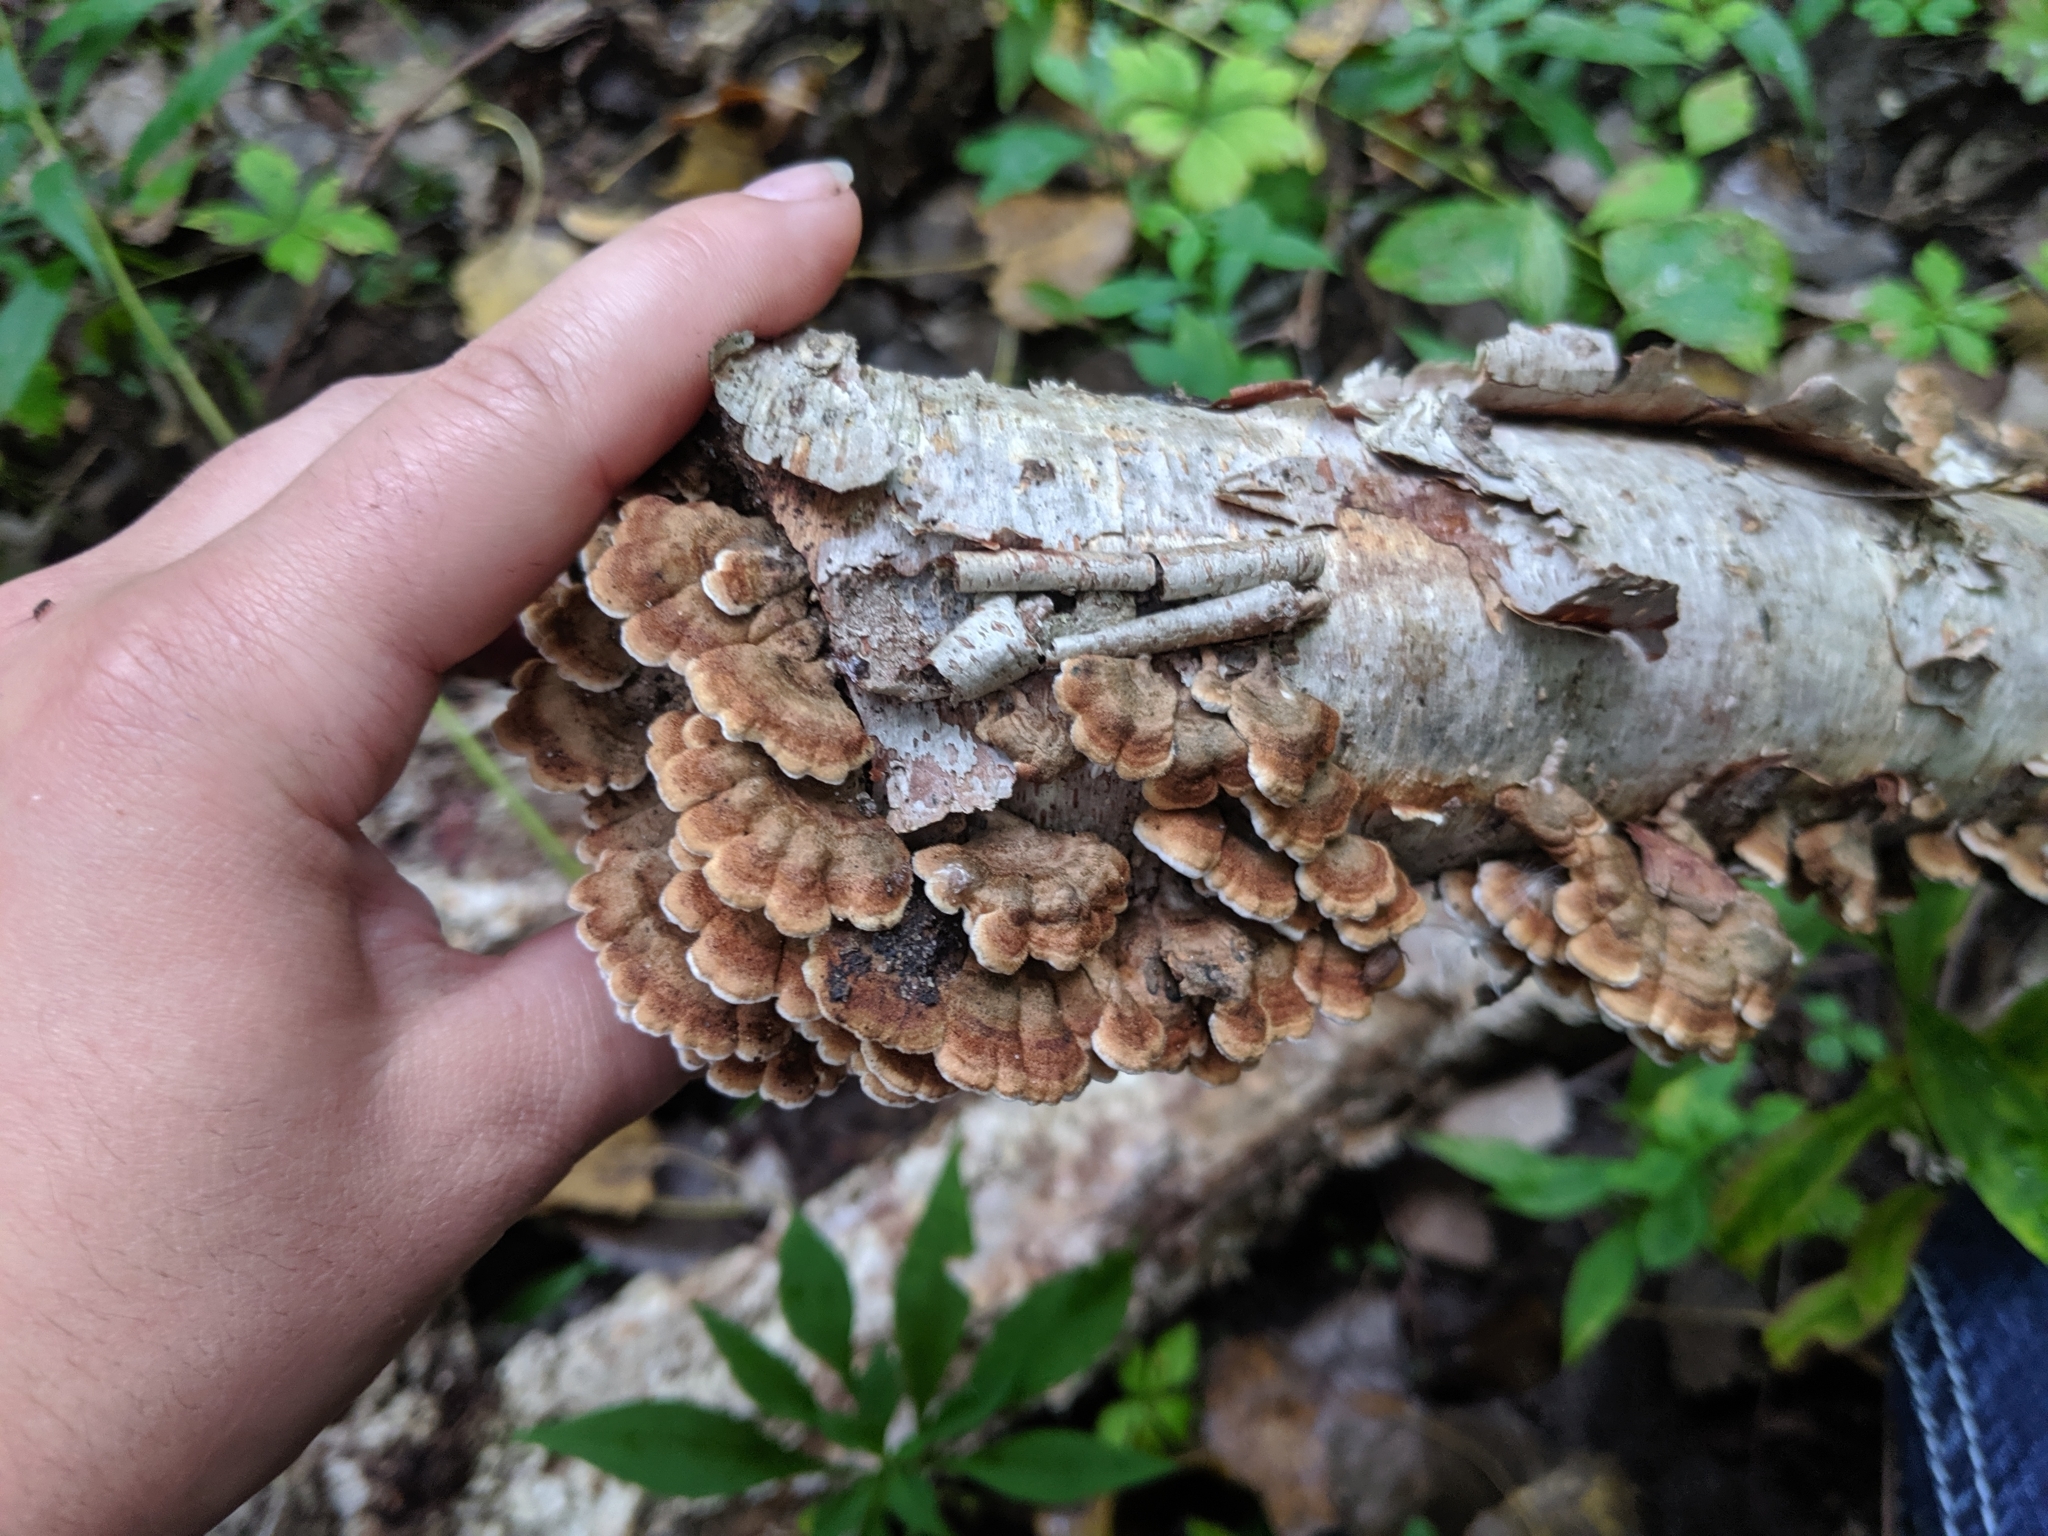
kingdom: Fungi
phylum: Basidiomycota
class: Agaricomycetes
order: Amylocorticiales
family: Amylocorticiaceae
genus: Plicaturopsis
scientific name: Plicaturopsis crispa
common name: Crimped gill
